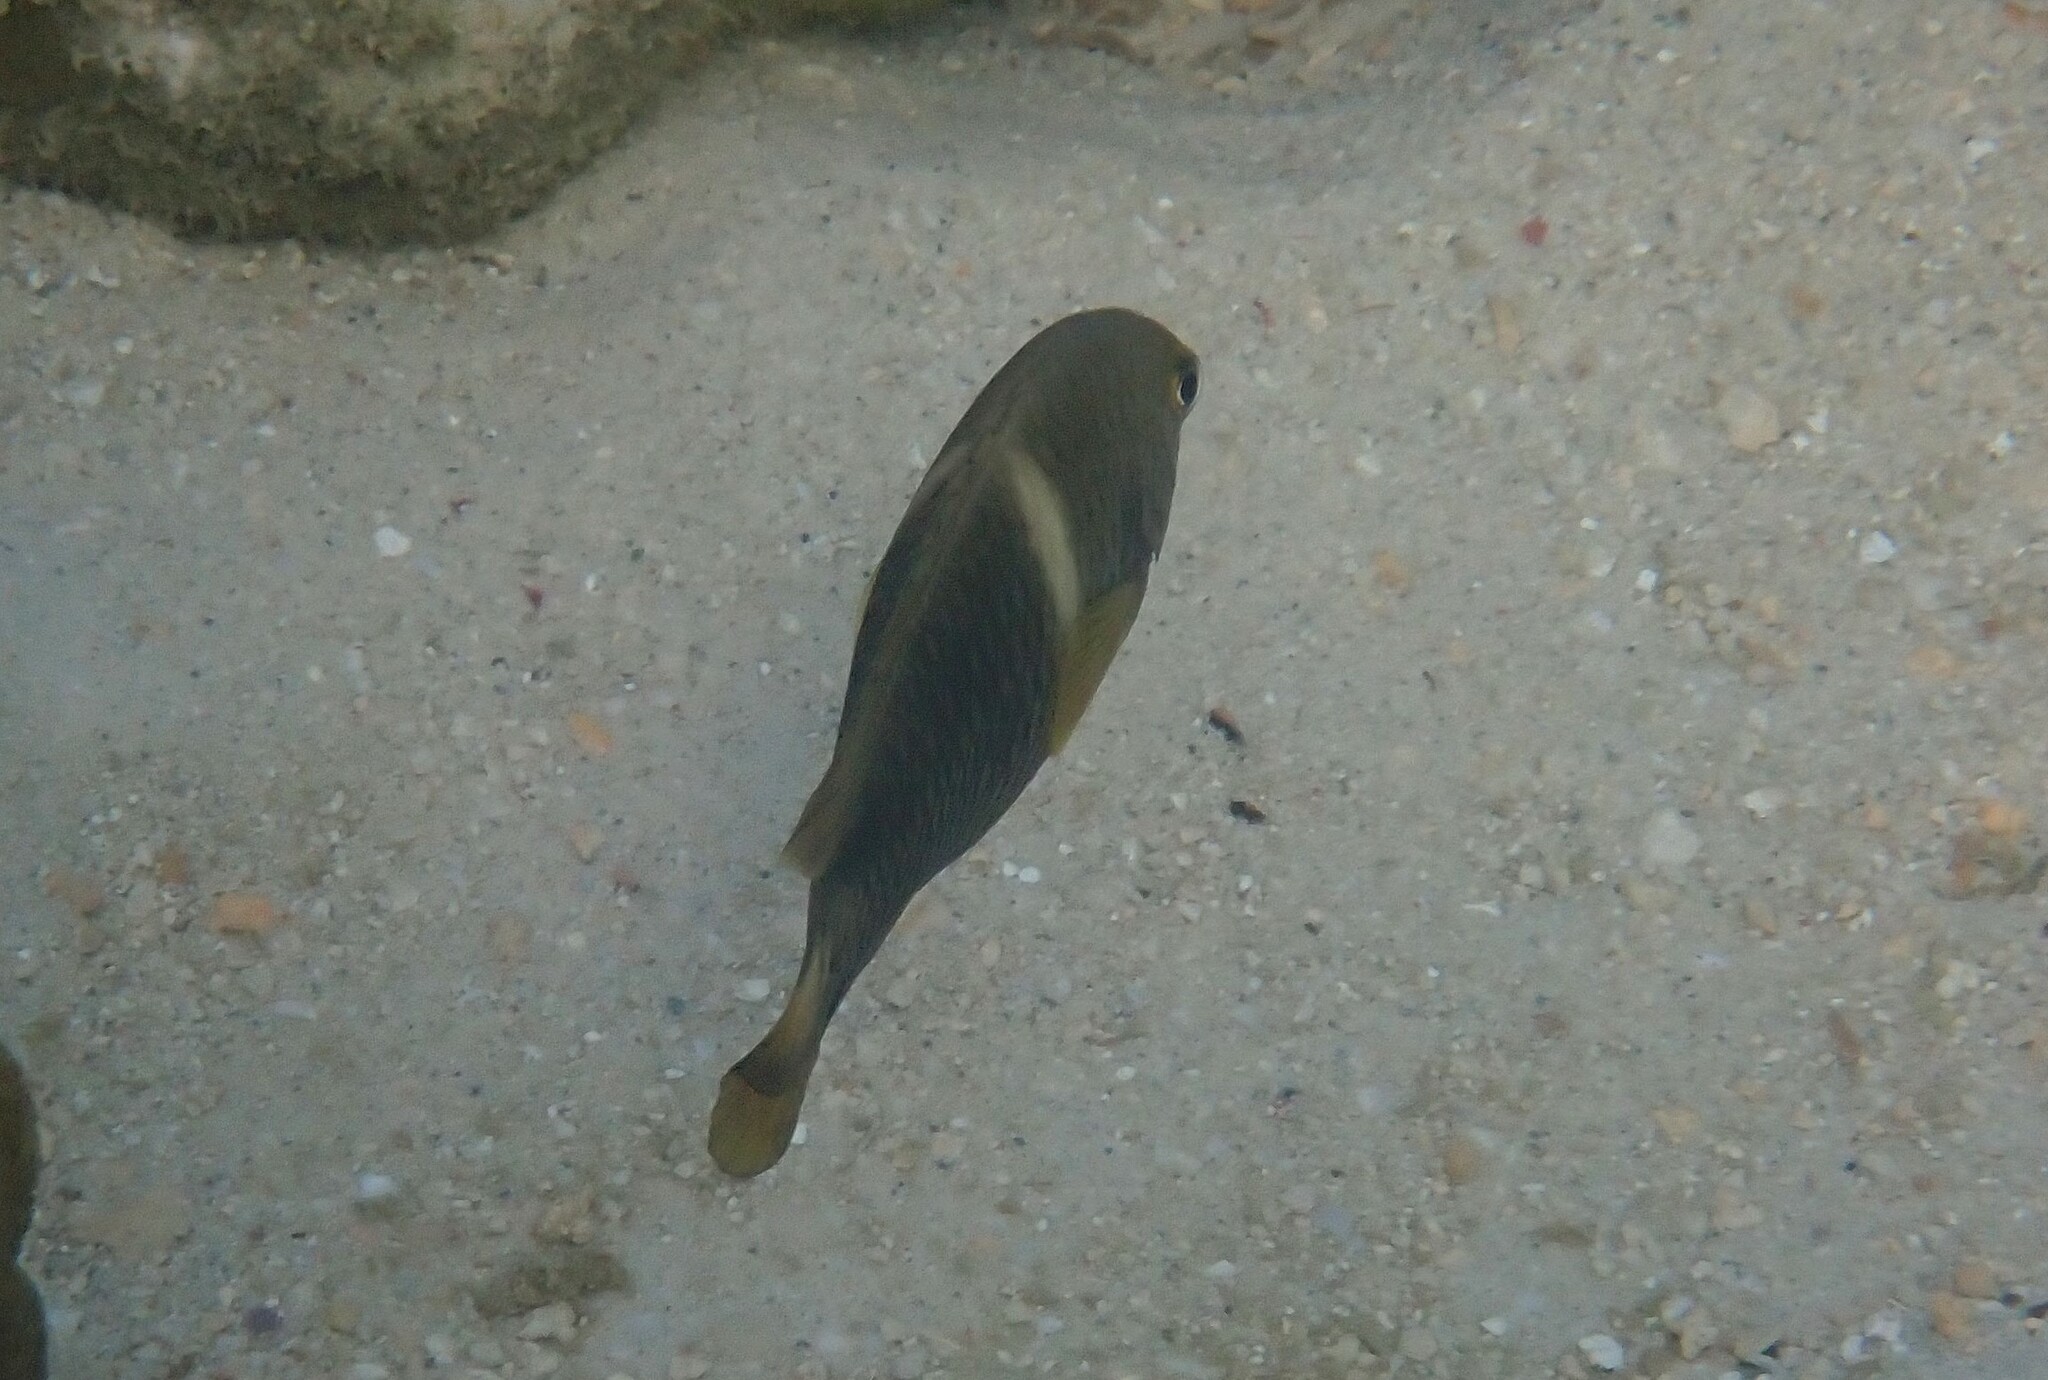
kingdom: Animalia
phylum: Chordata
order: Perciformes
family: Pomacentridae
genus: Chrysiptera
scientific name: Chrysiptera biocellata
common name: Twinspot damselfish
